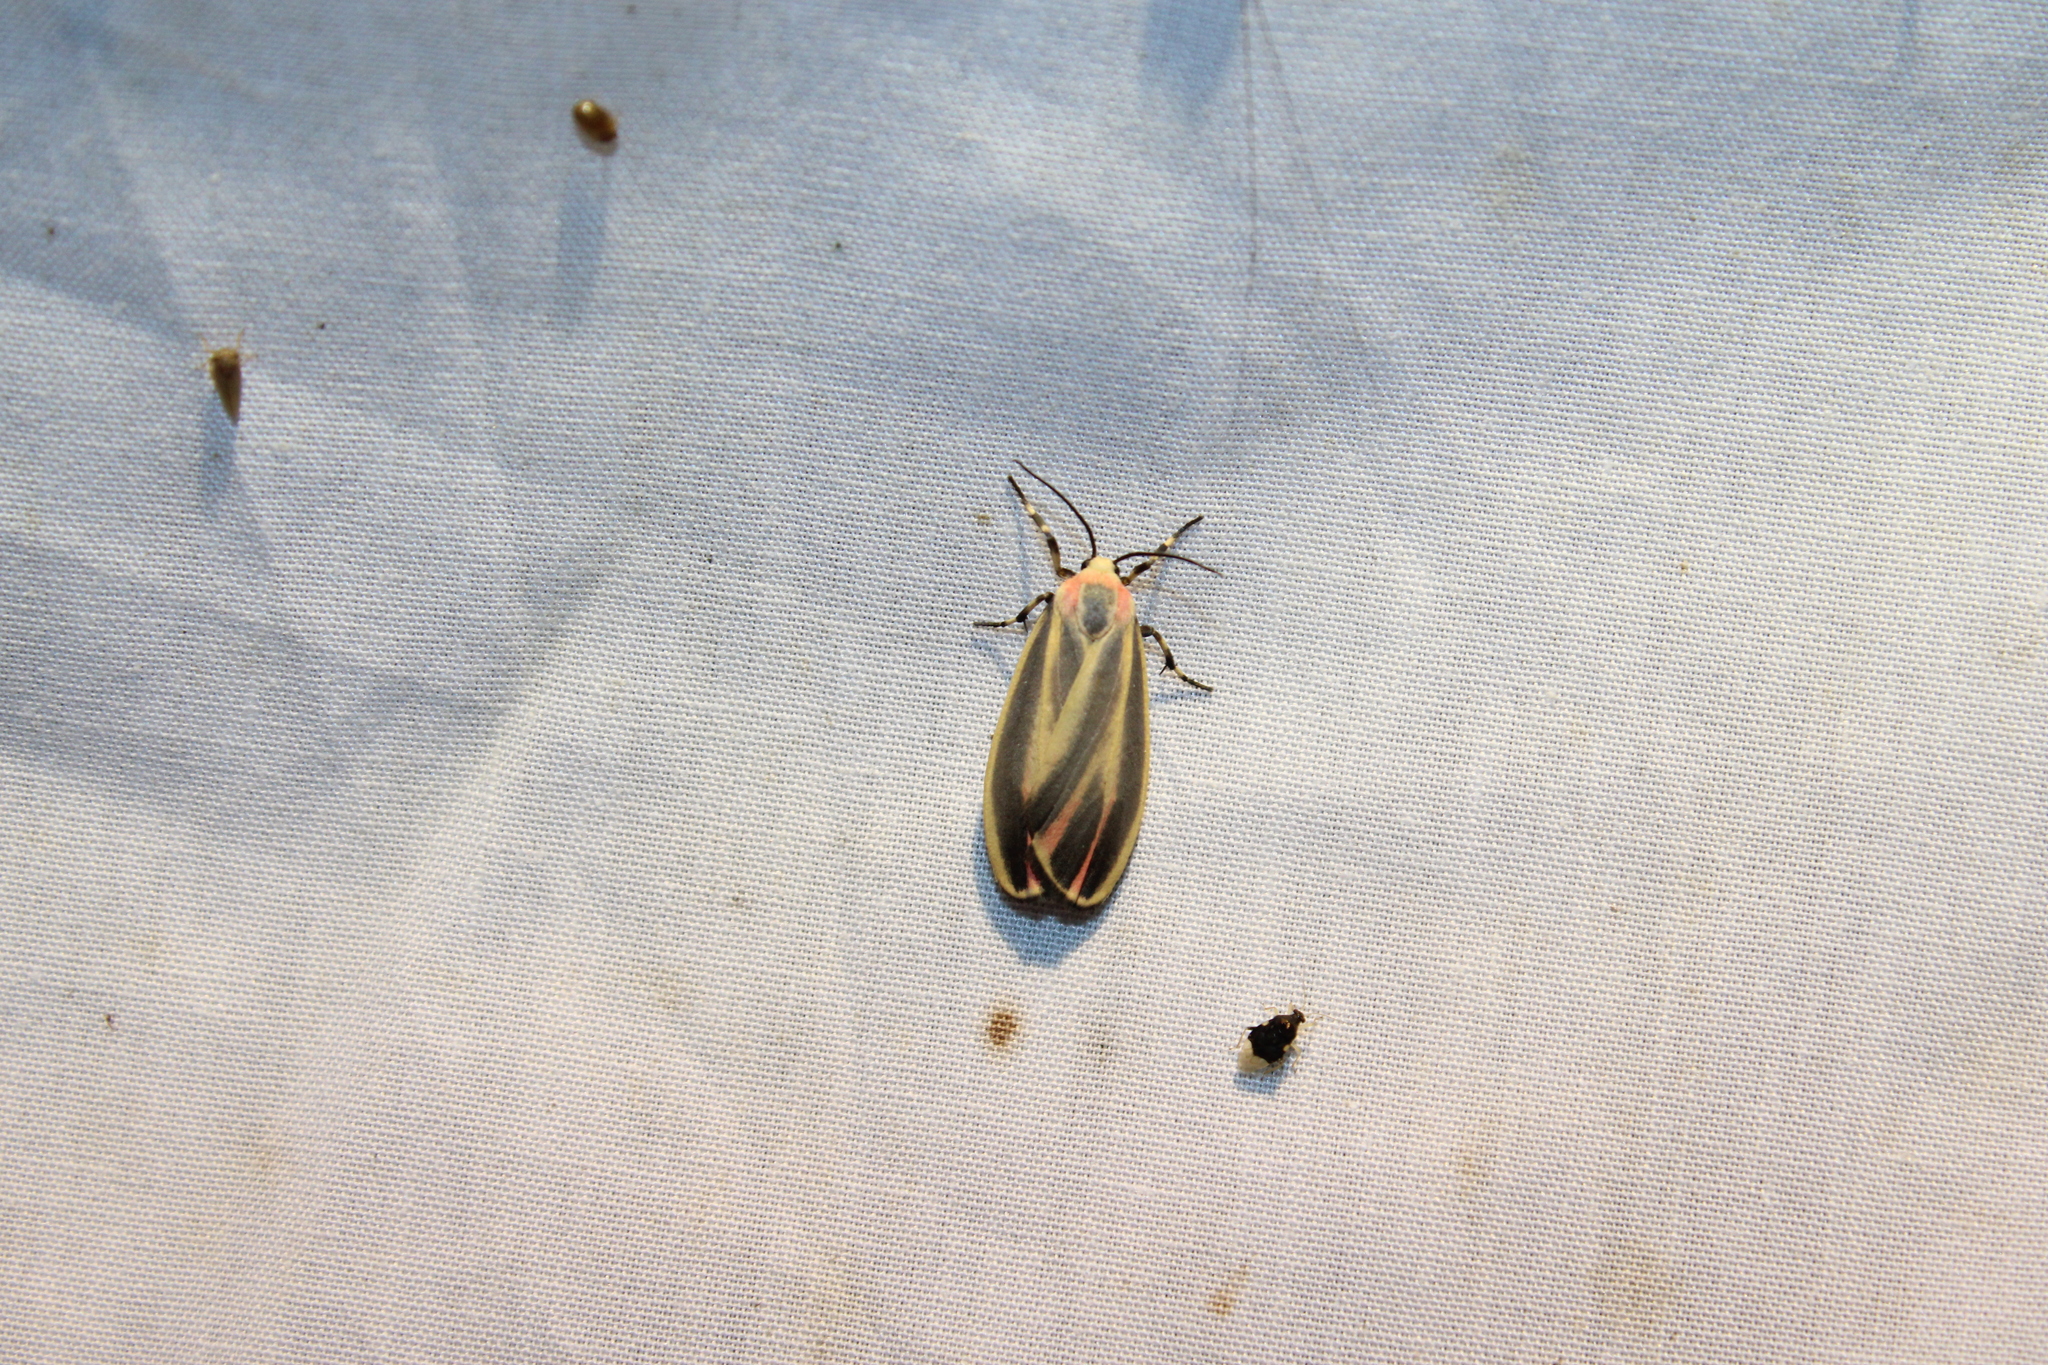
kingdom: Animalia
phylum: Arthropoda
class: Insecta
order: Lepidoptera
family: Erebidae
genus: Hypoprepia
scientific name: Hypoprepia fucosa
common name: Painted lichen moth
